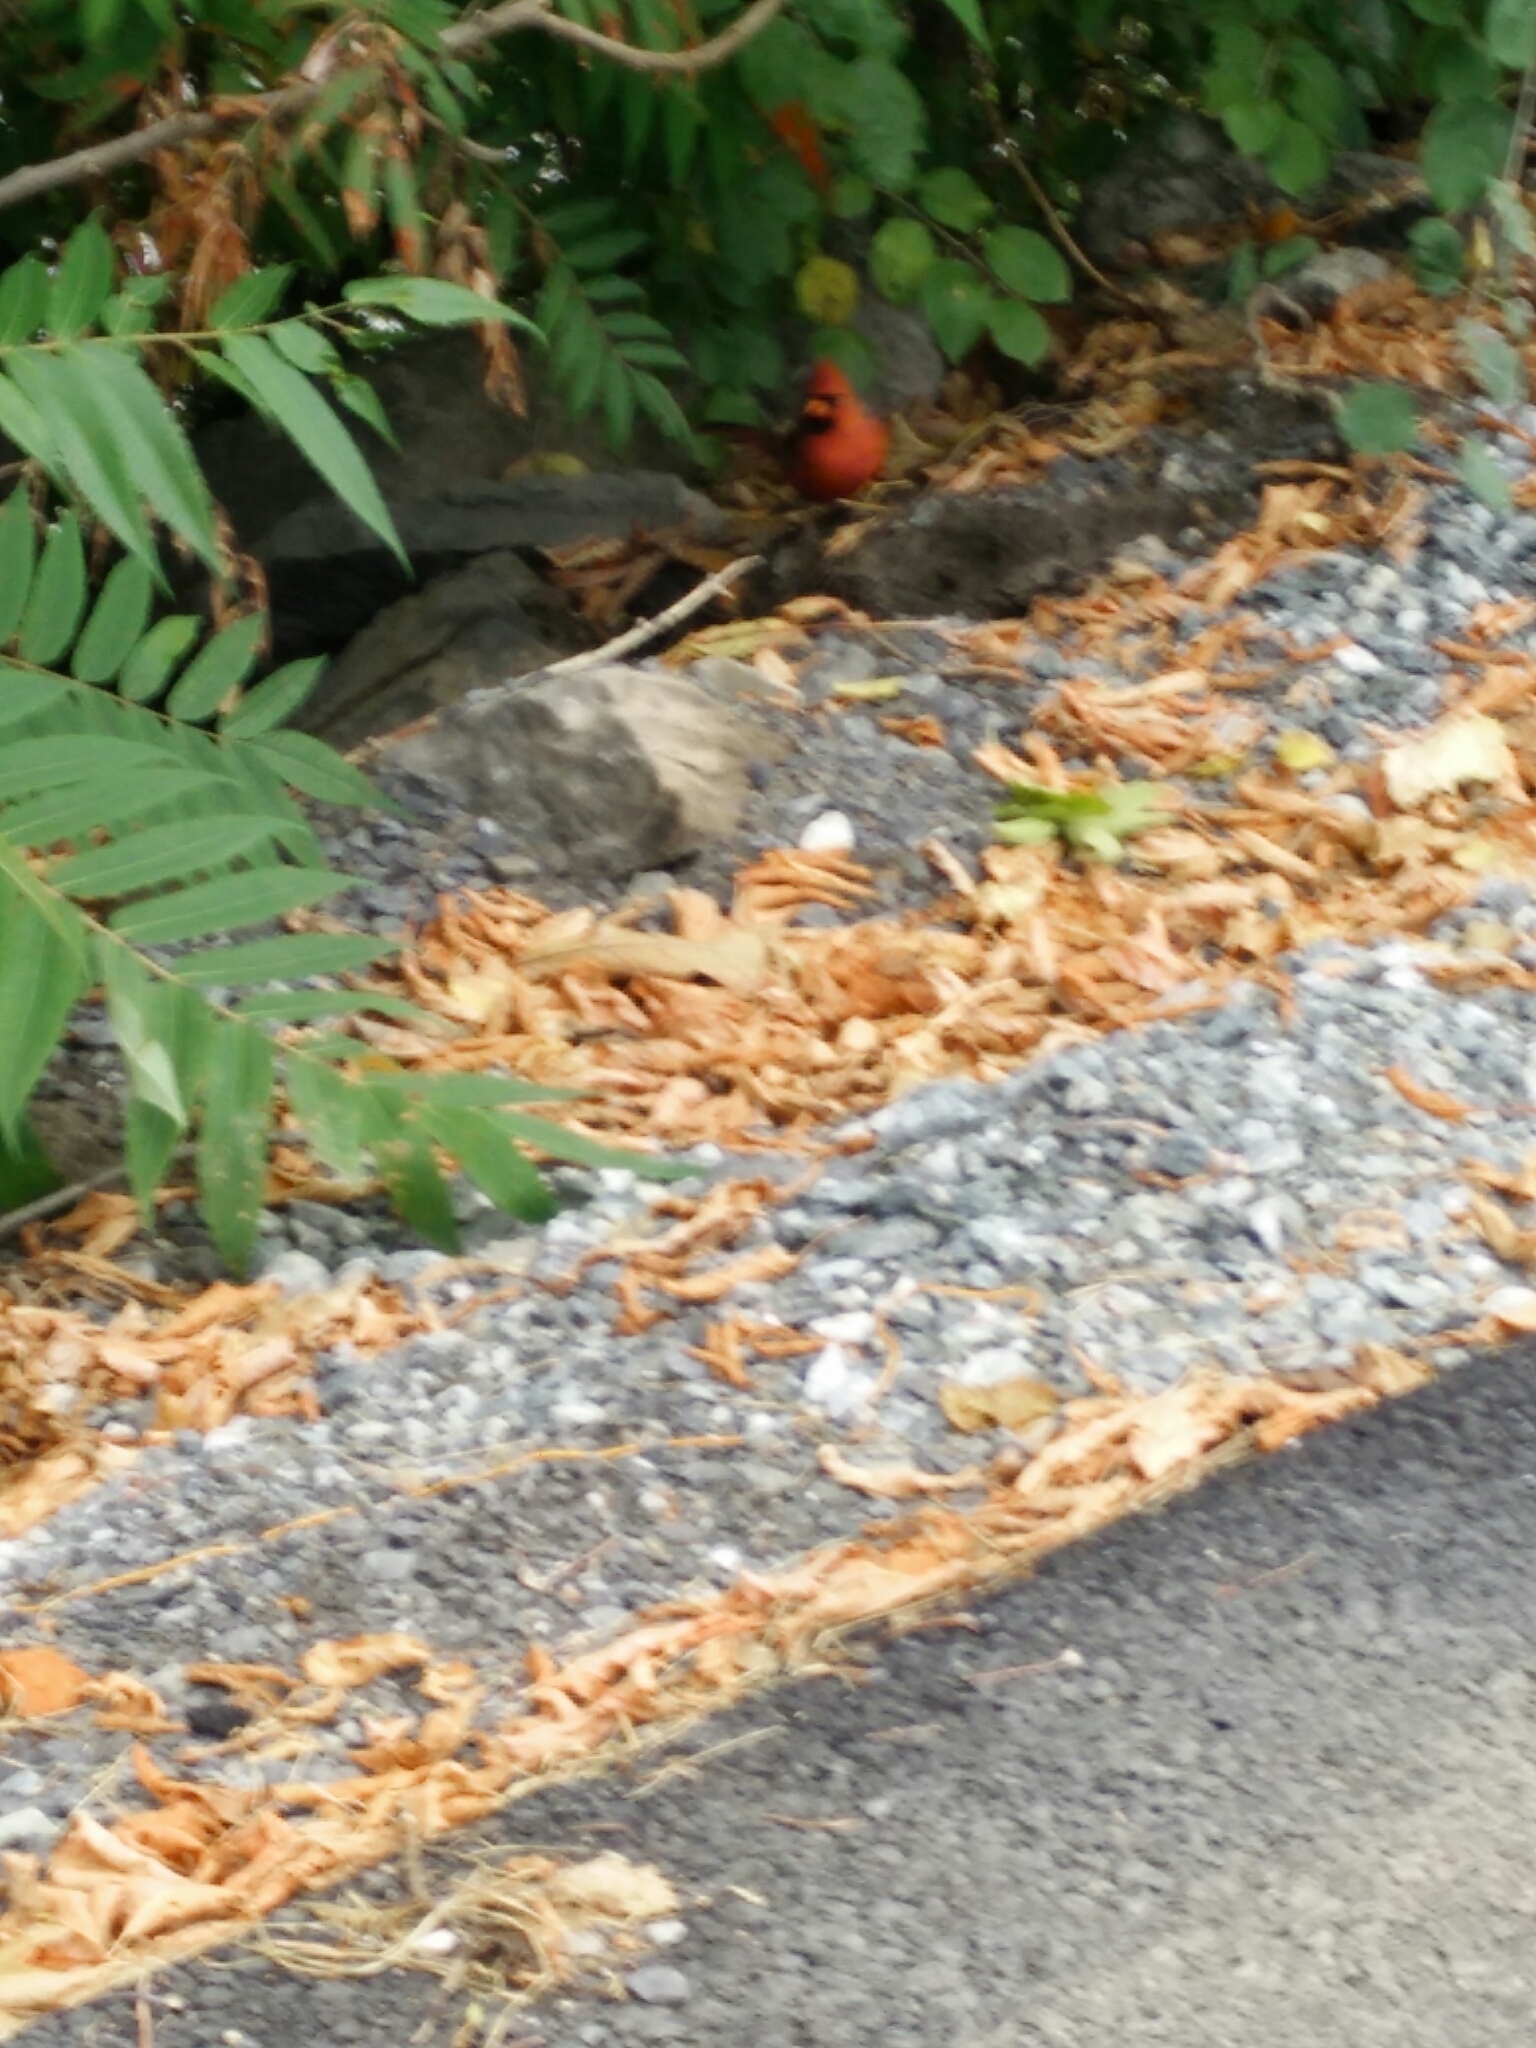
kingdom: Animalia
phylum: Chordata
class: Aves
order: Passeriformes
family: Cardinalidae
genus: Cardinalis
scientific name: Cardinalis cardinalis
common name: Northern cardinal
